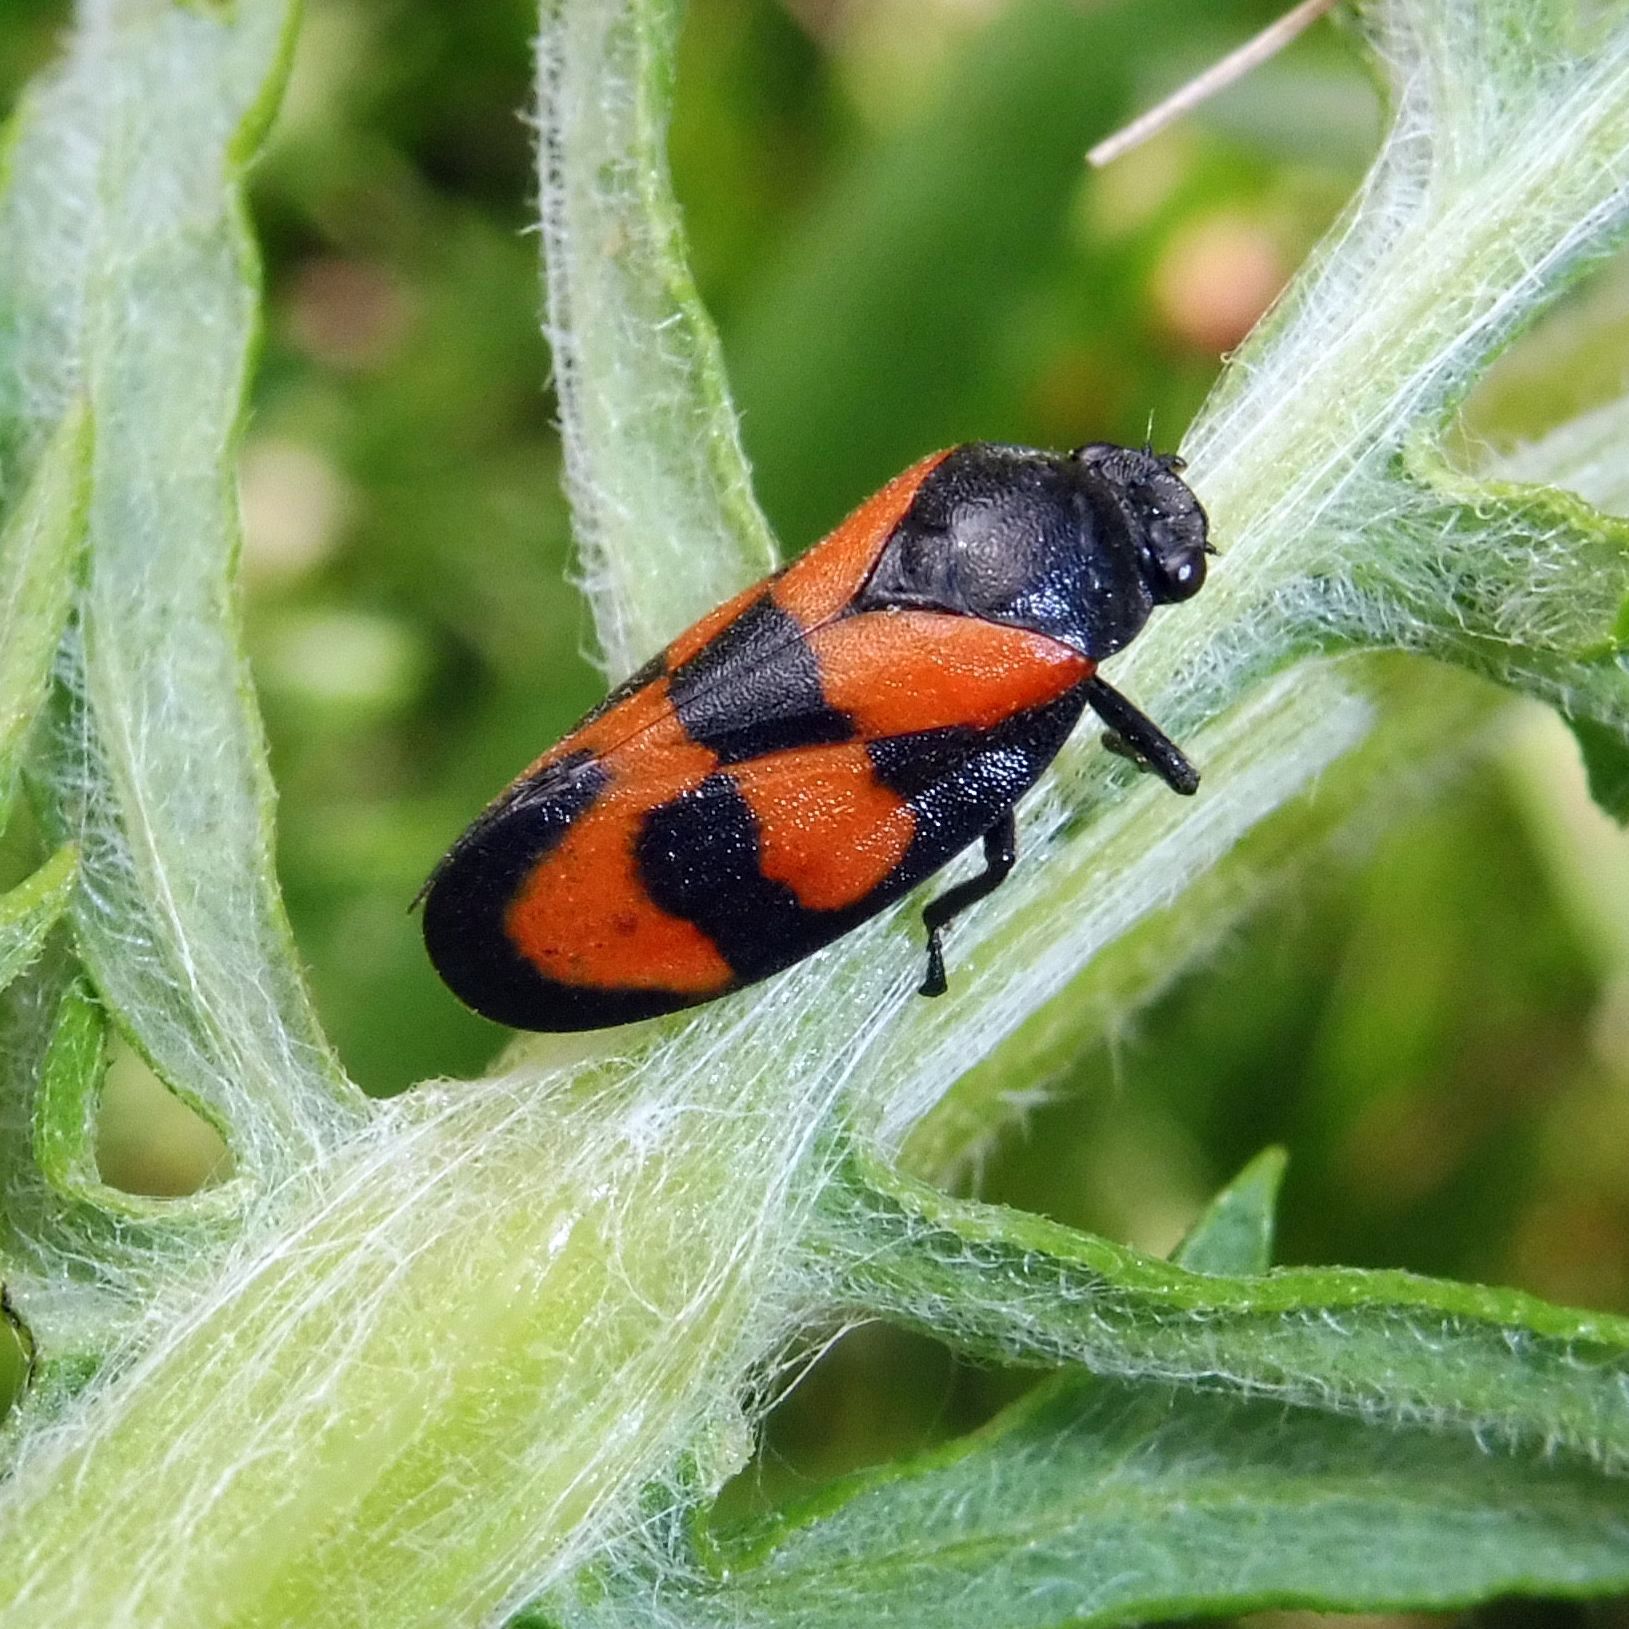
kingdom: Animalia
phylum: Arthropoda
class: Insecta
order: Hemiptera
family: Cercopidae
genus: Cercopis
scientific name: Cercopis vulnerata
